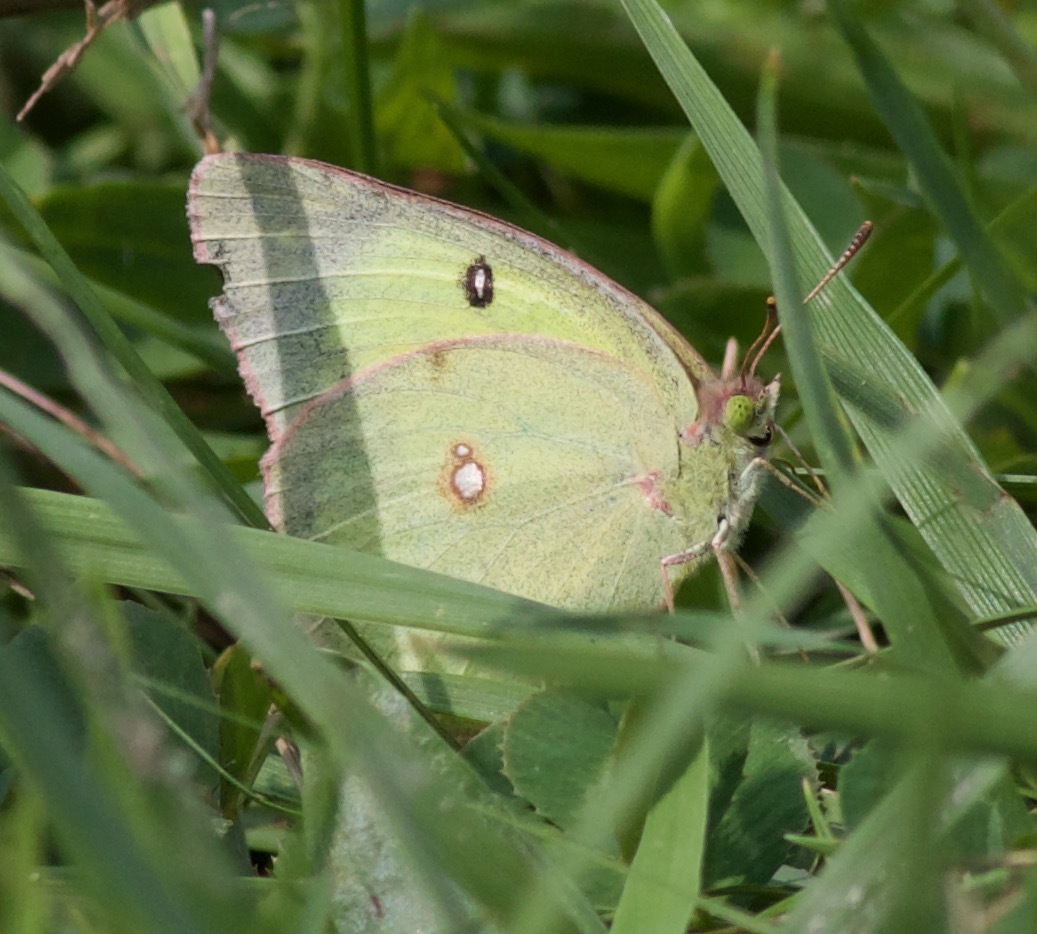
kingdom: Animalia
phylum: Arthropoda
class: Insecta
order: Lepidoptera
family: Pieridae
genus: Colias
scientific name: Colias philodice
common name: Clouded sulphur
